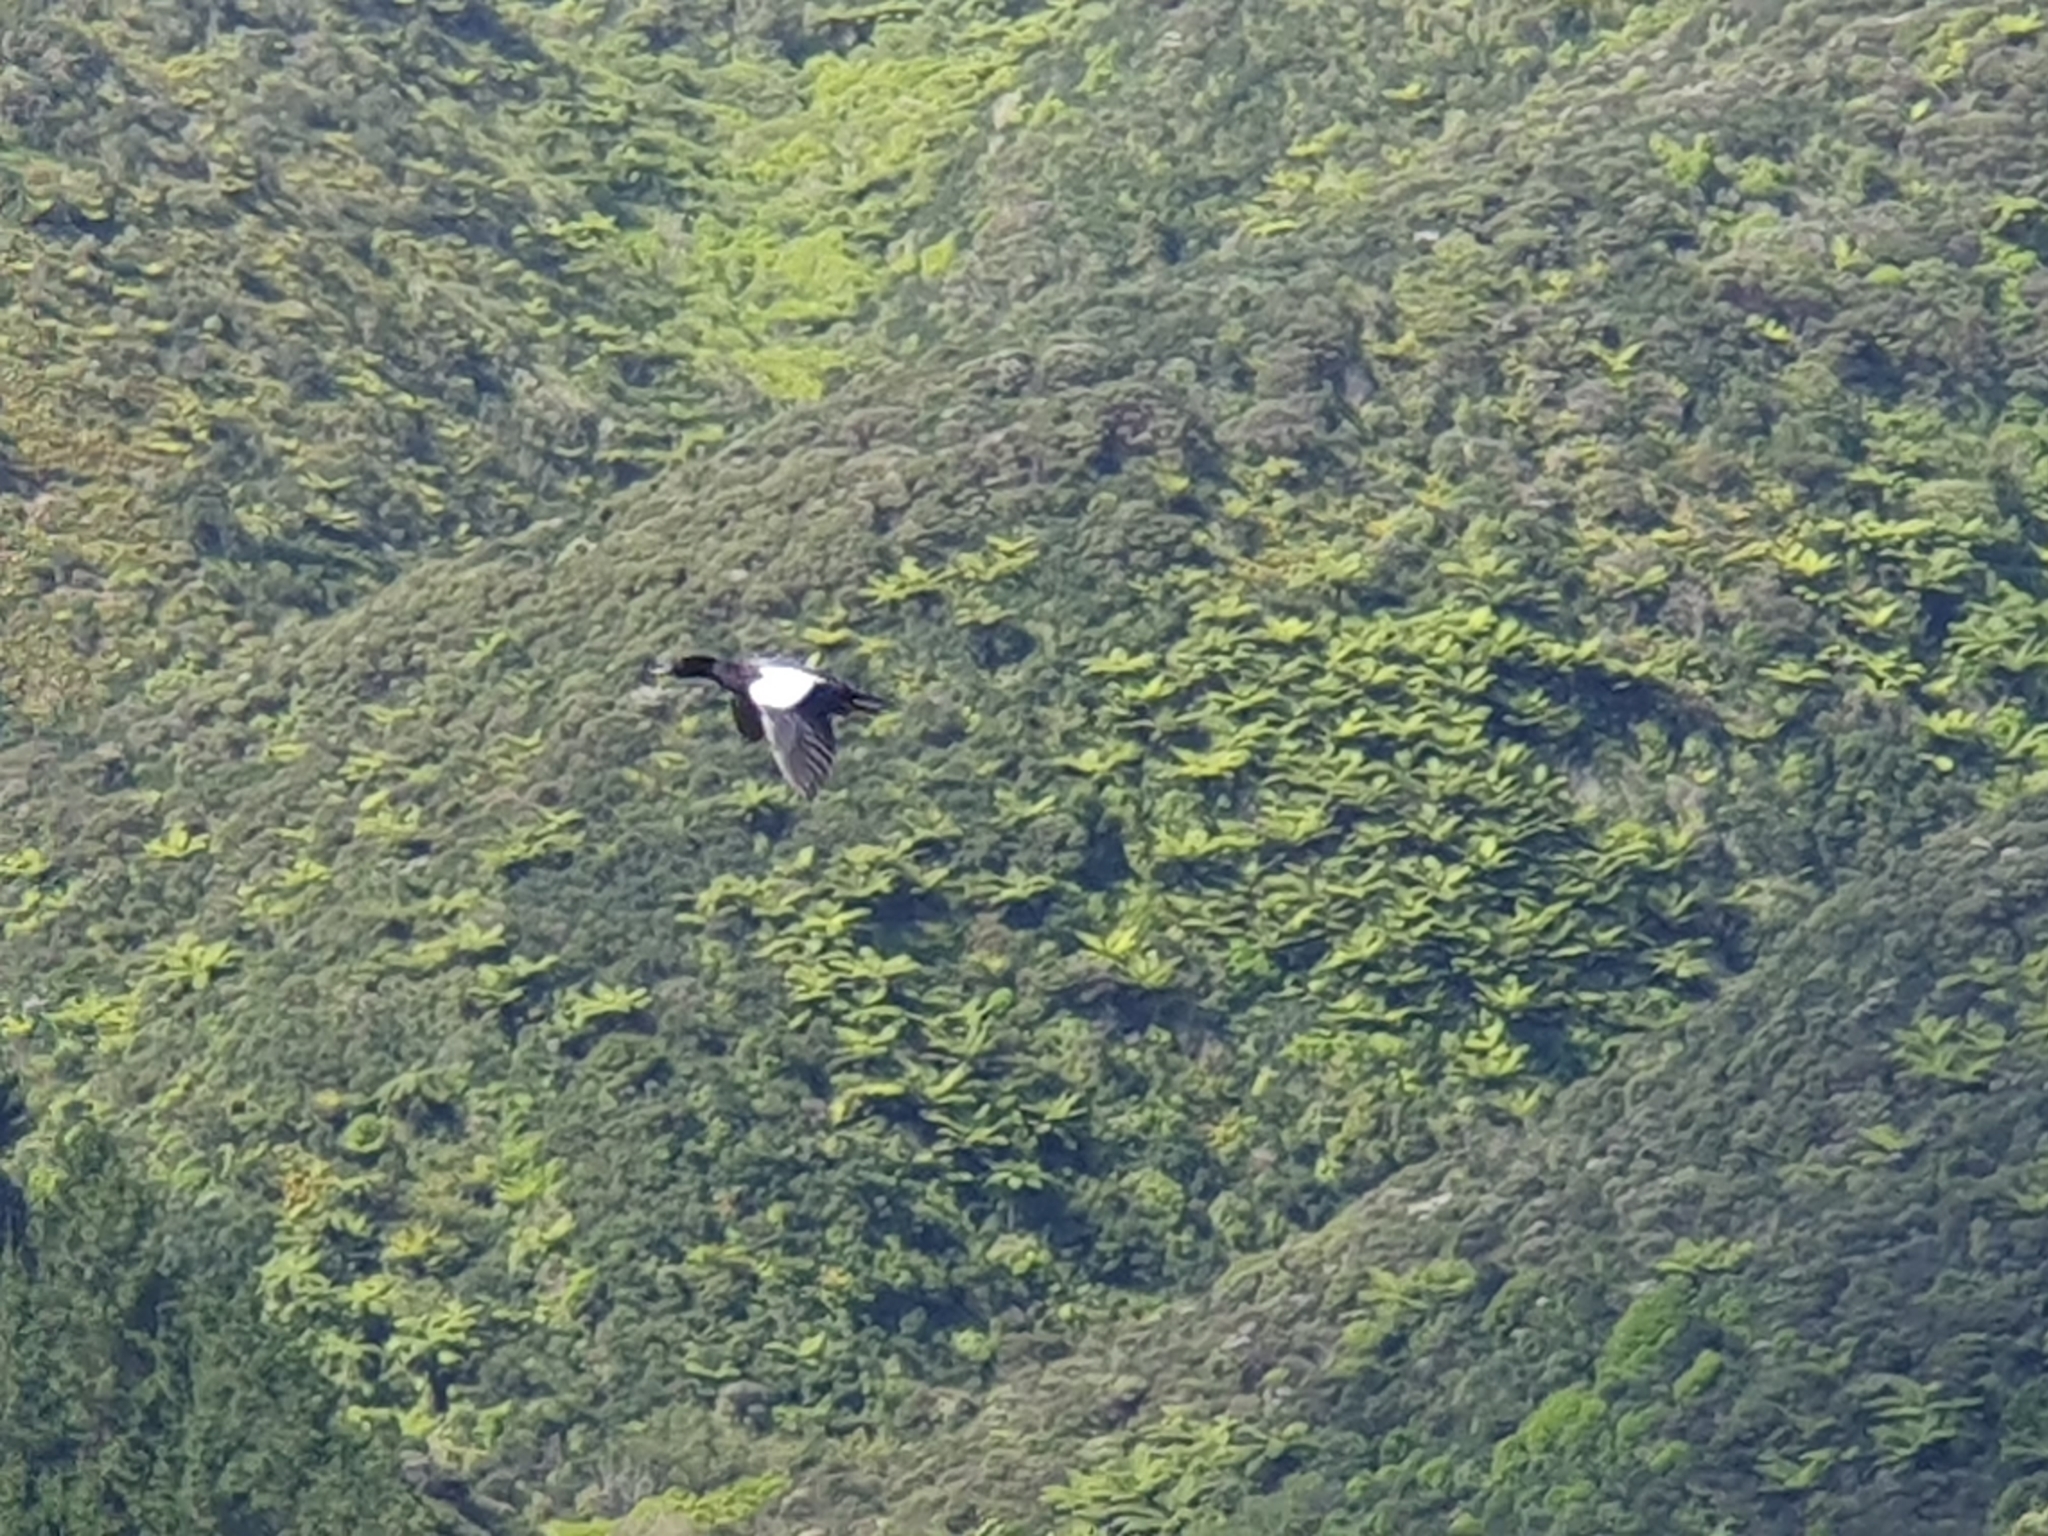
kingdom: Animalia
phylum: Chordata
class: Aves
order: Anseriformes
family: Anatidae
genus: Tadorna
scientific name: Tadorna variegata
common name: Paradise shelduck
